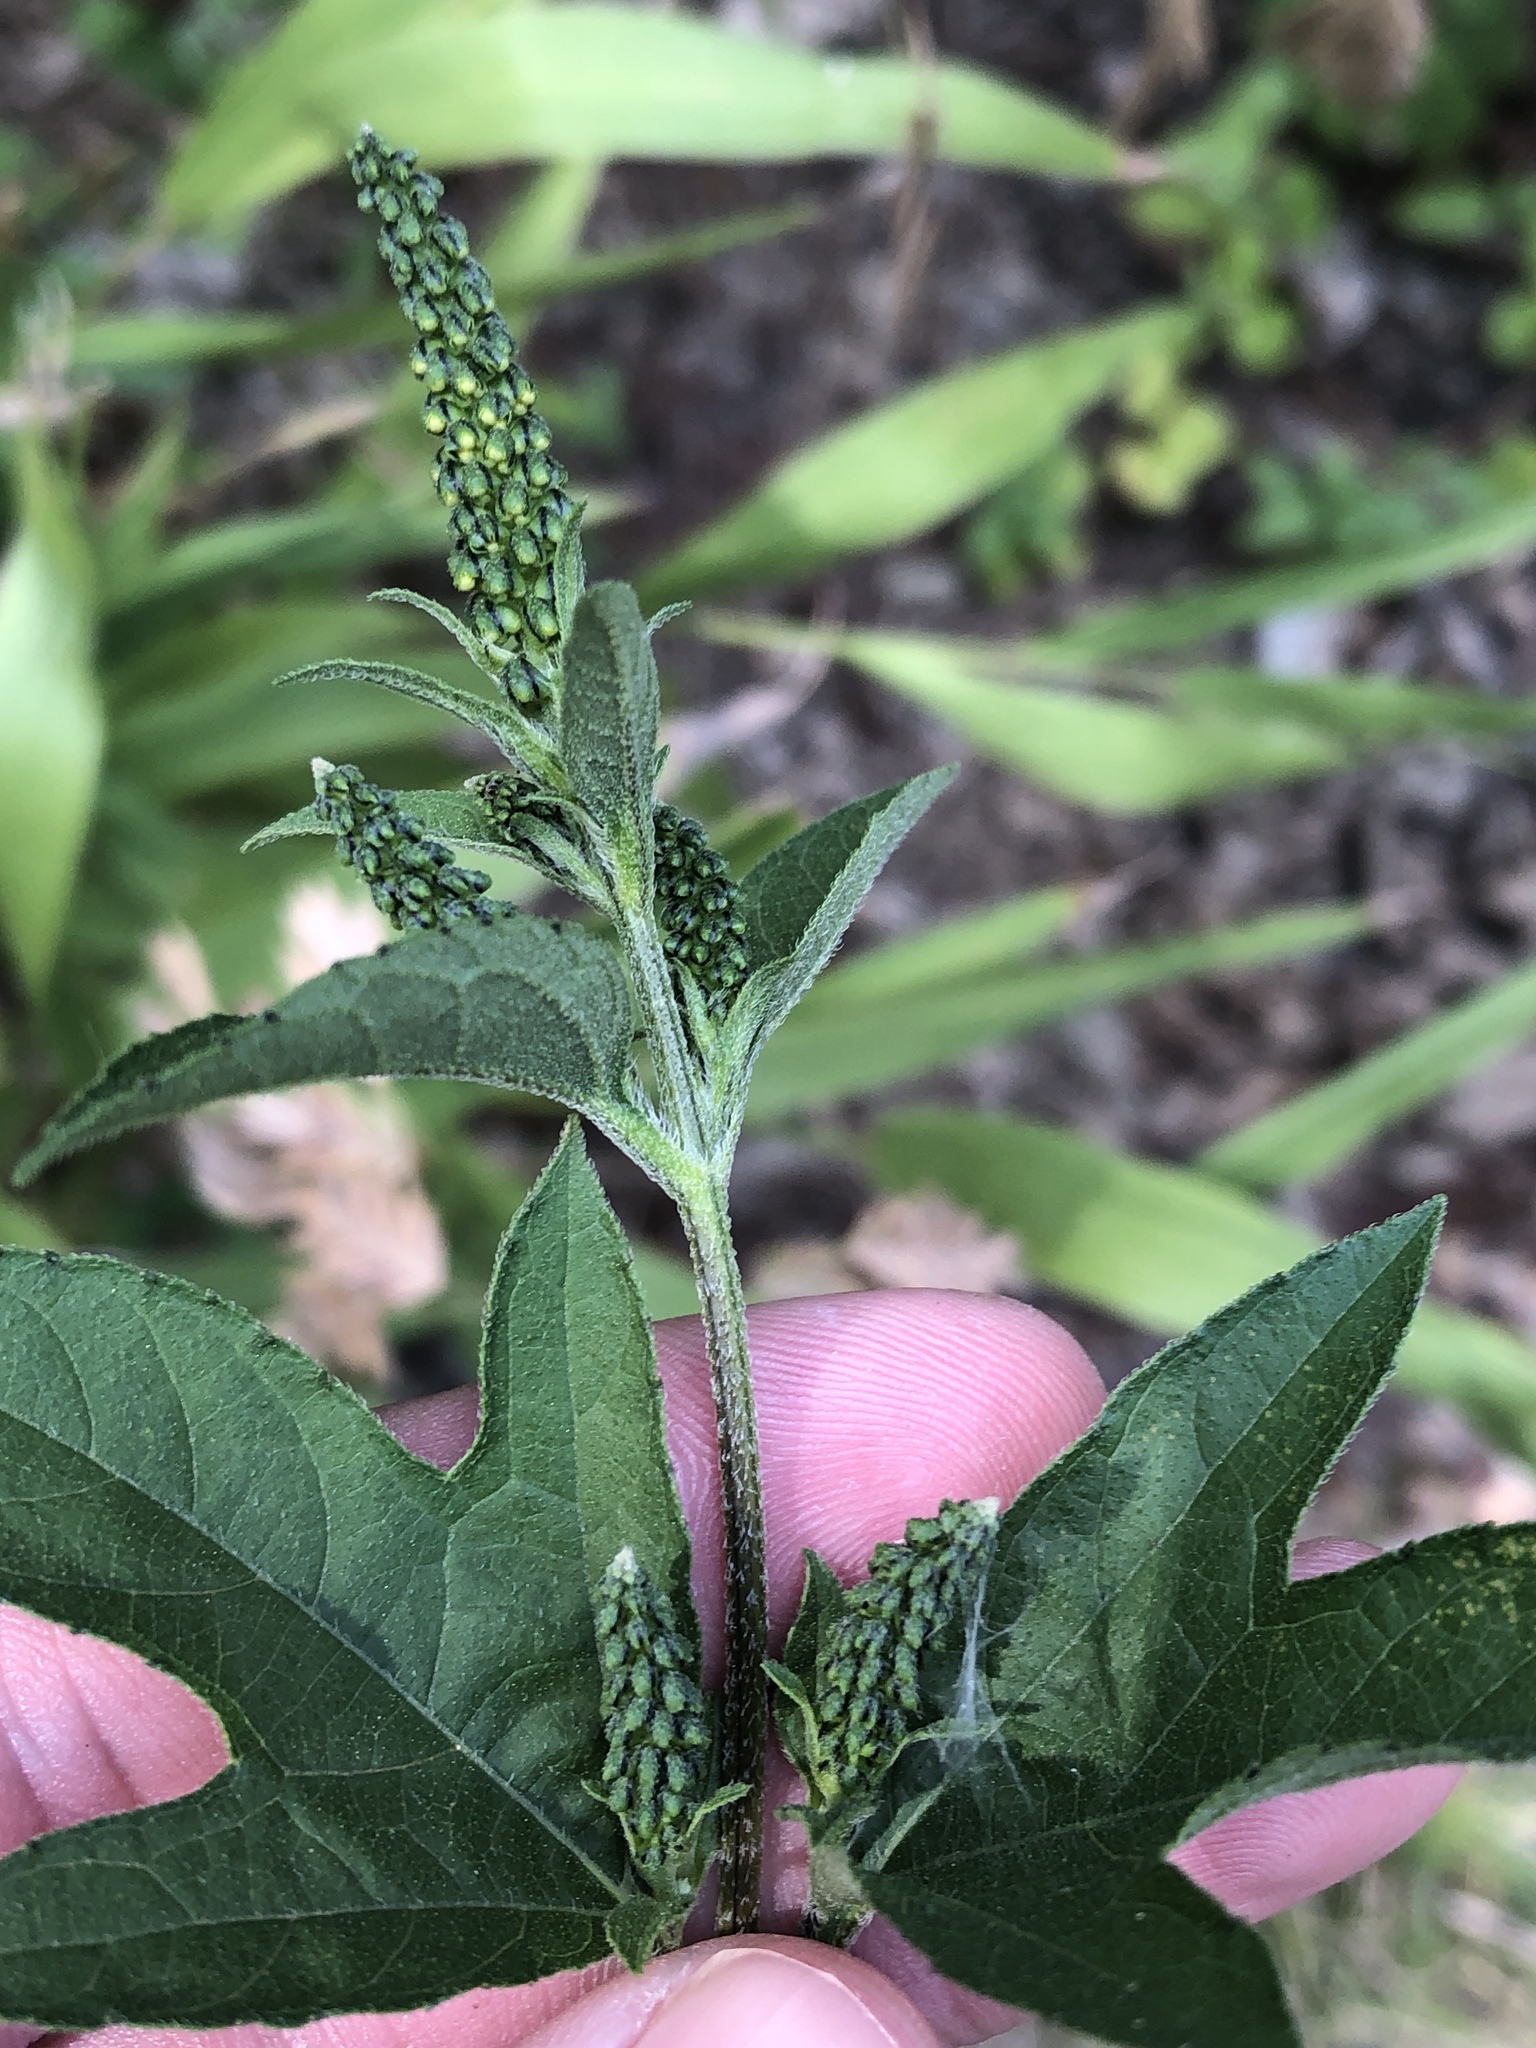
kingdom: Plantae
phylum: Tracheophyta
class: Magnoliopsida
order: Asterales
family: Asteraceae
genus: Ambrosia
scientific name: Ambrosia trifida
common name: Giant ragweed
